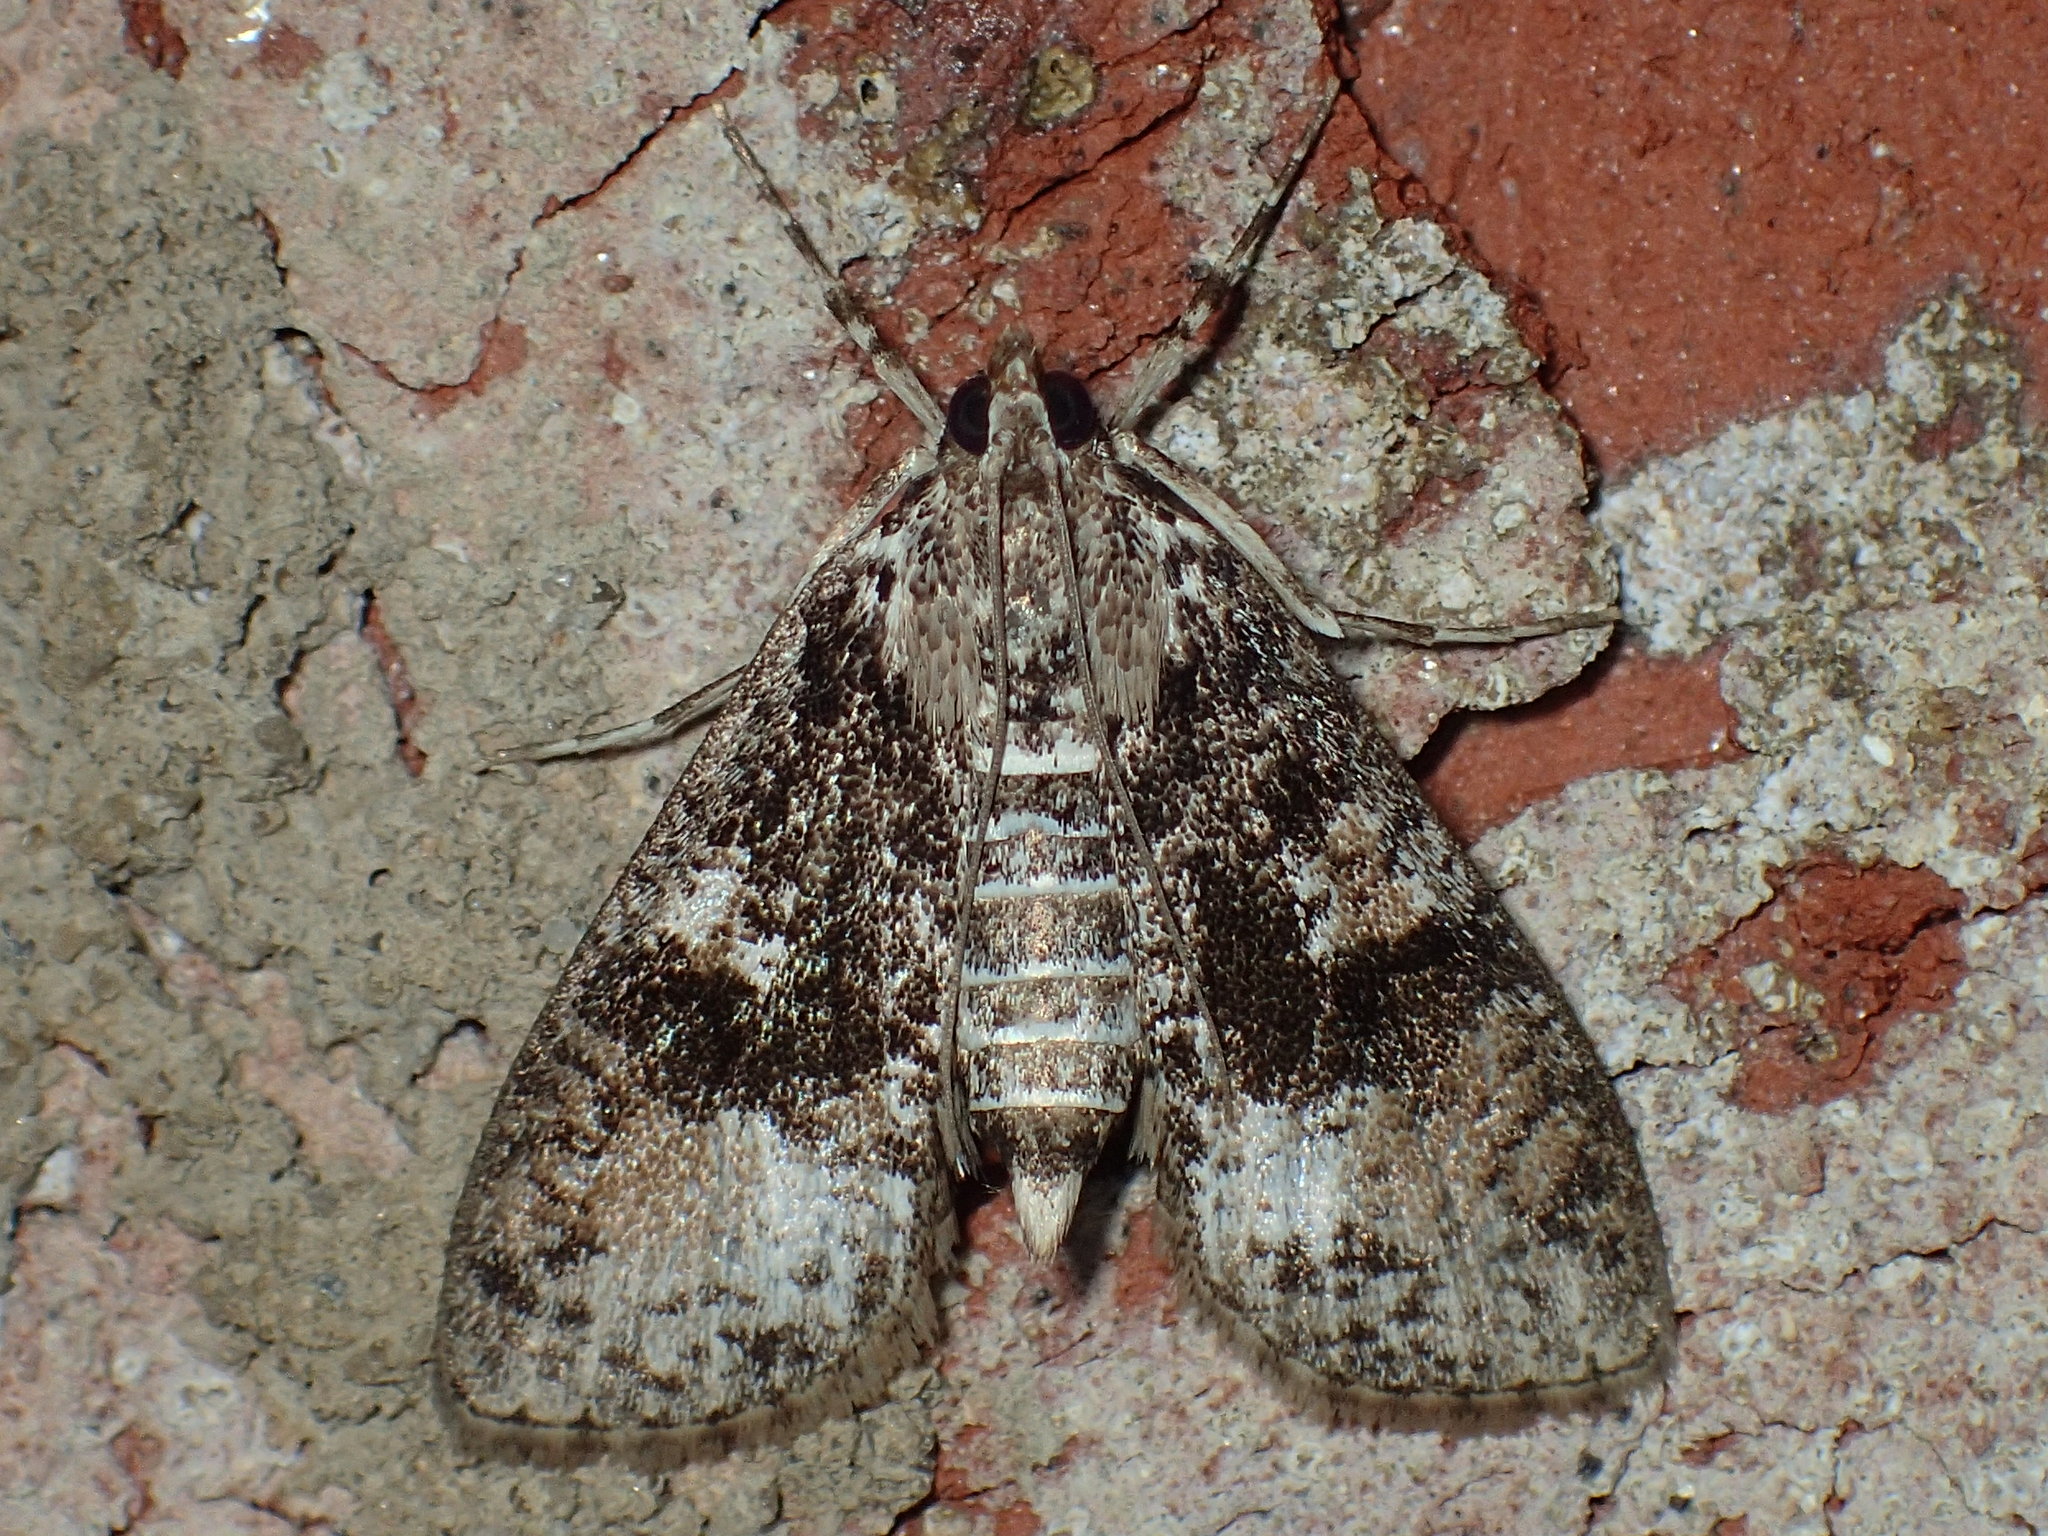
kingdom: Animalia
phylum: Arthropoda
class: Insecta
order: Lepidoptera
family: Crambidae
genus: Palpita
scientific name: Palpita magniferalis
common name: Splendid palpita moth
